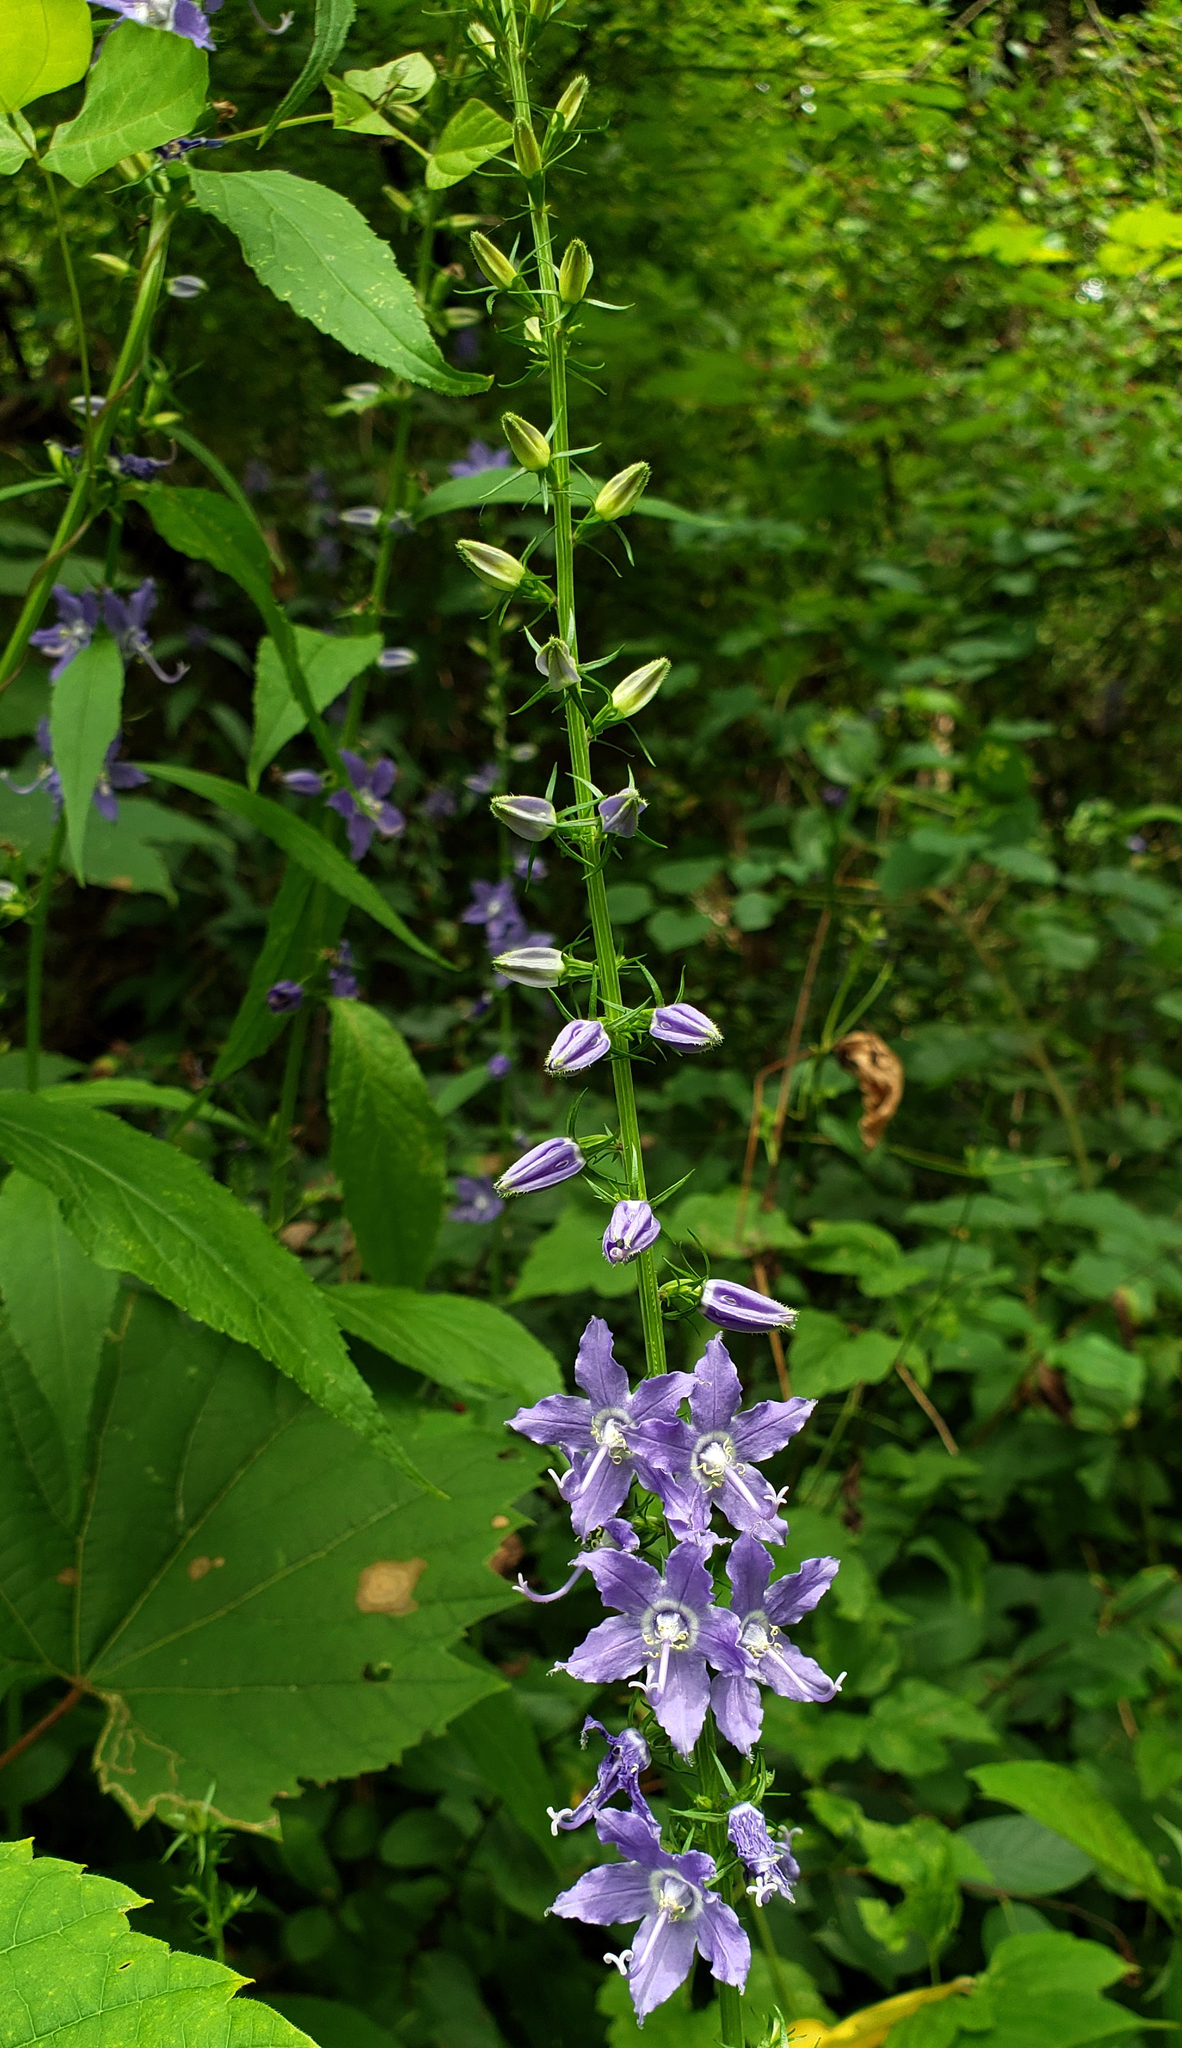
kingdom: Plantae
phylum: Tracheophyta
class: Magnoliopsida
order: Asterales
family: Campanulaceae
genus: Campanulastrum
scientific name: Campanulastrum americanum
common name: American bellflower
